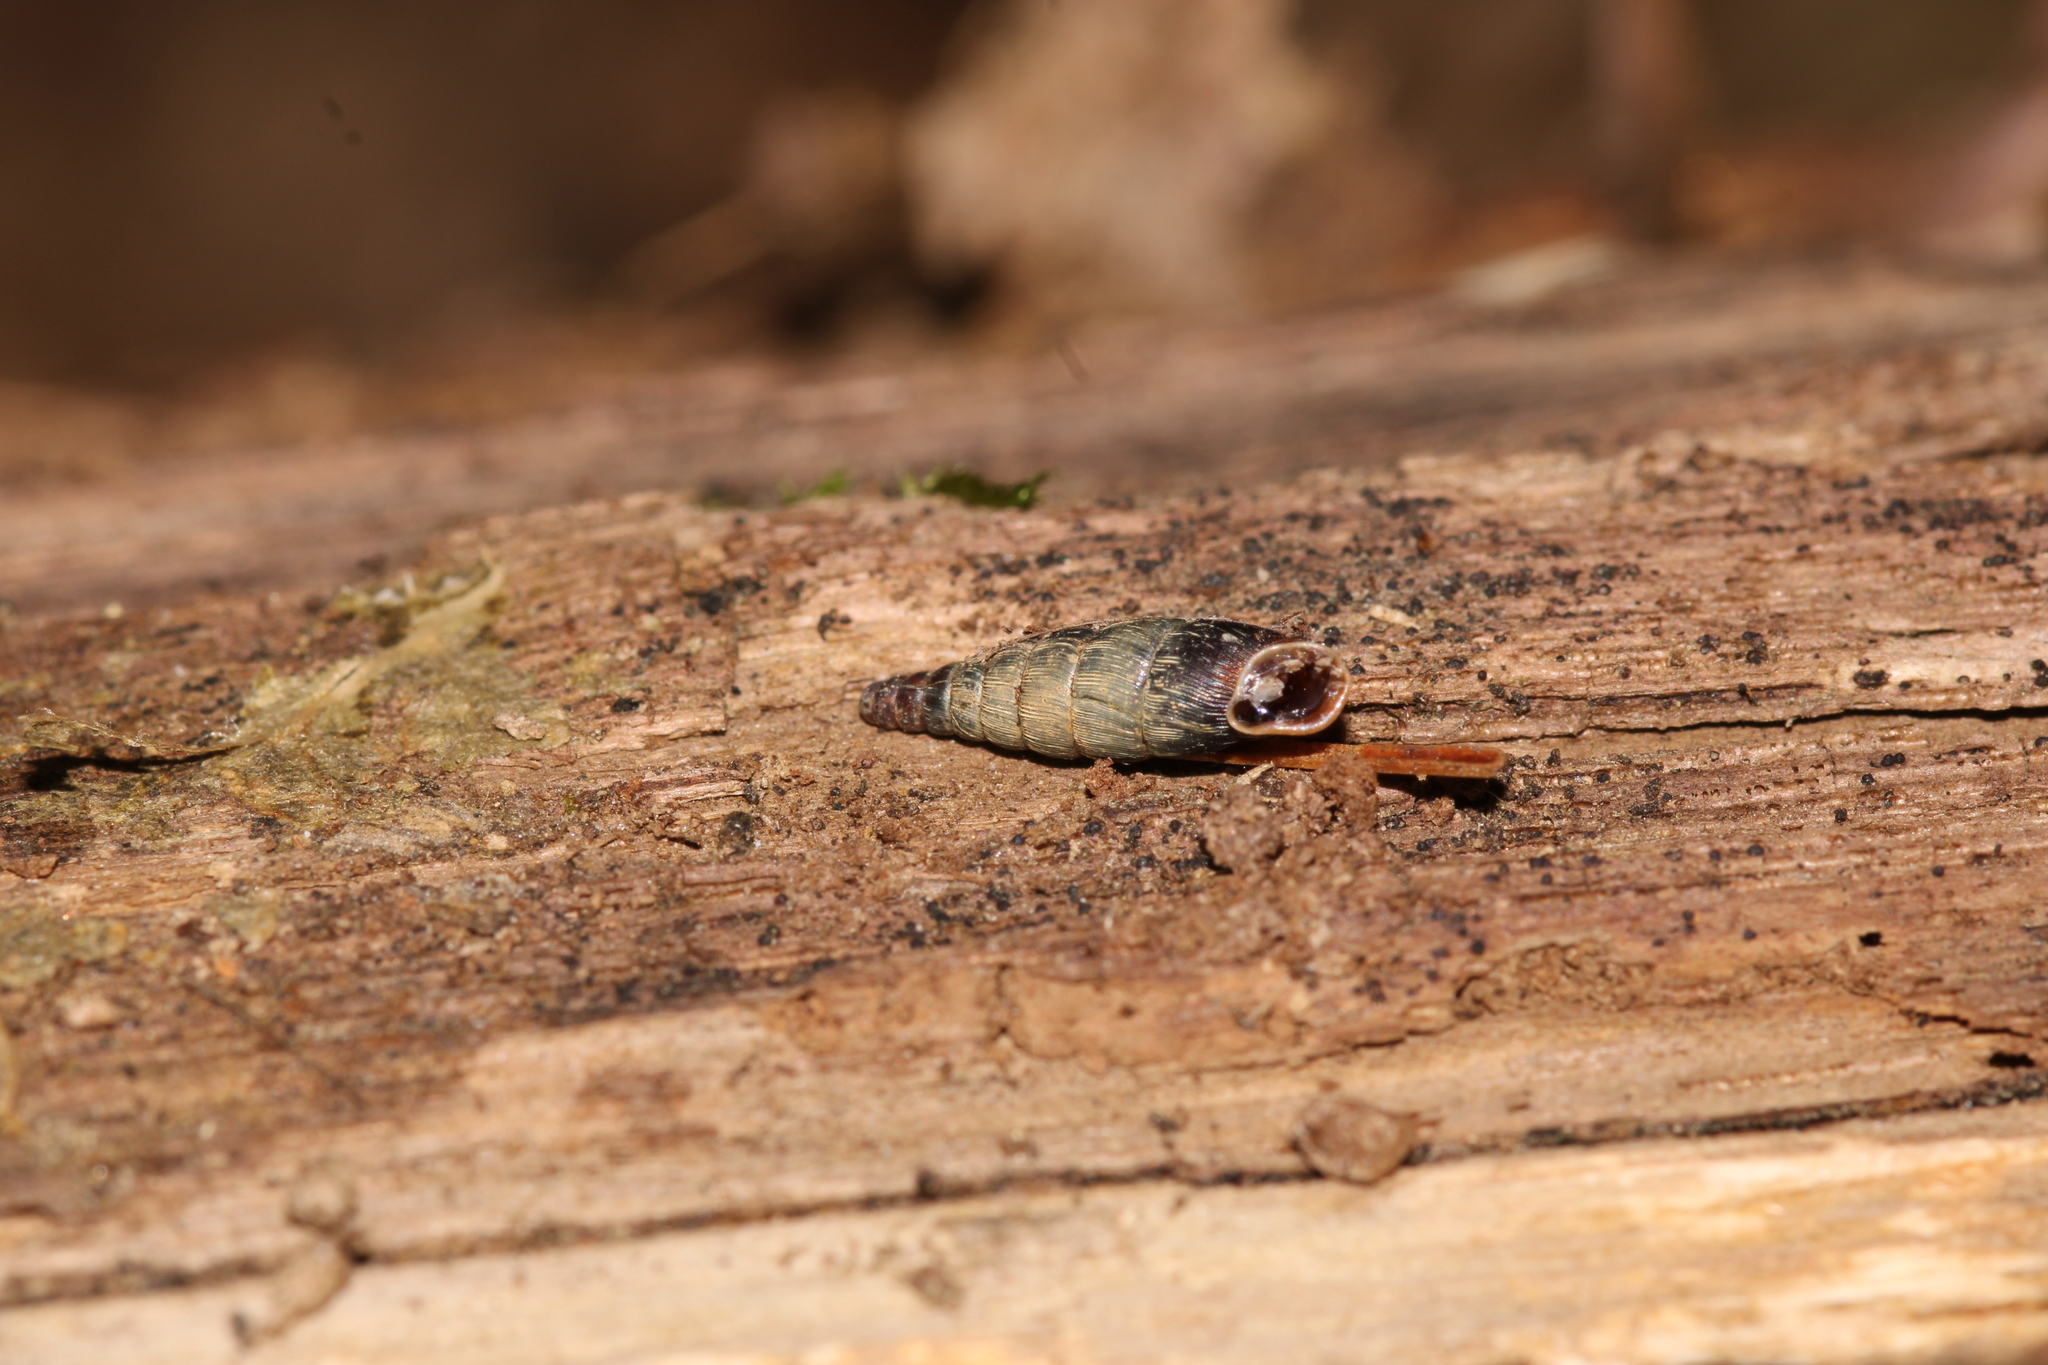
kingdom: Animalia
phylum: Mollusca
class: Gastropoda
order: Stylommatophora
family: Clausiliidae
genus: Clausilia
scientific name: Clausilia bidentata
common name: Two-toothed door snail
